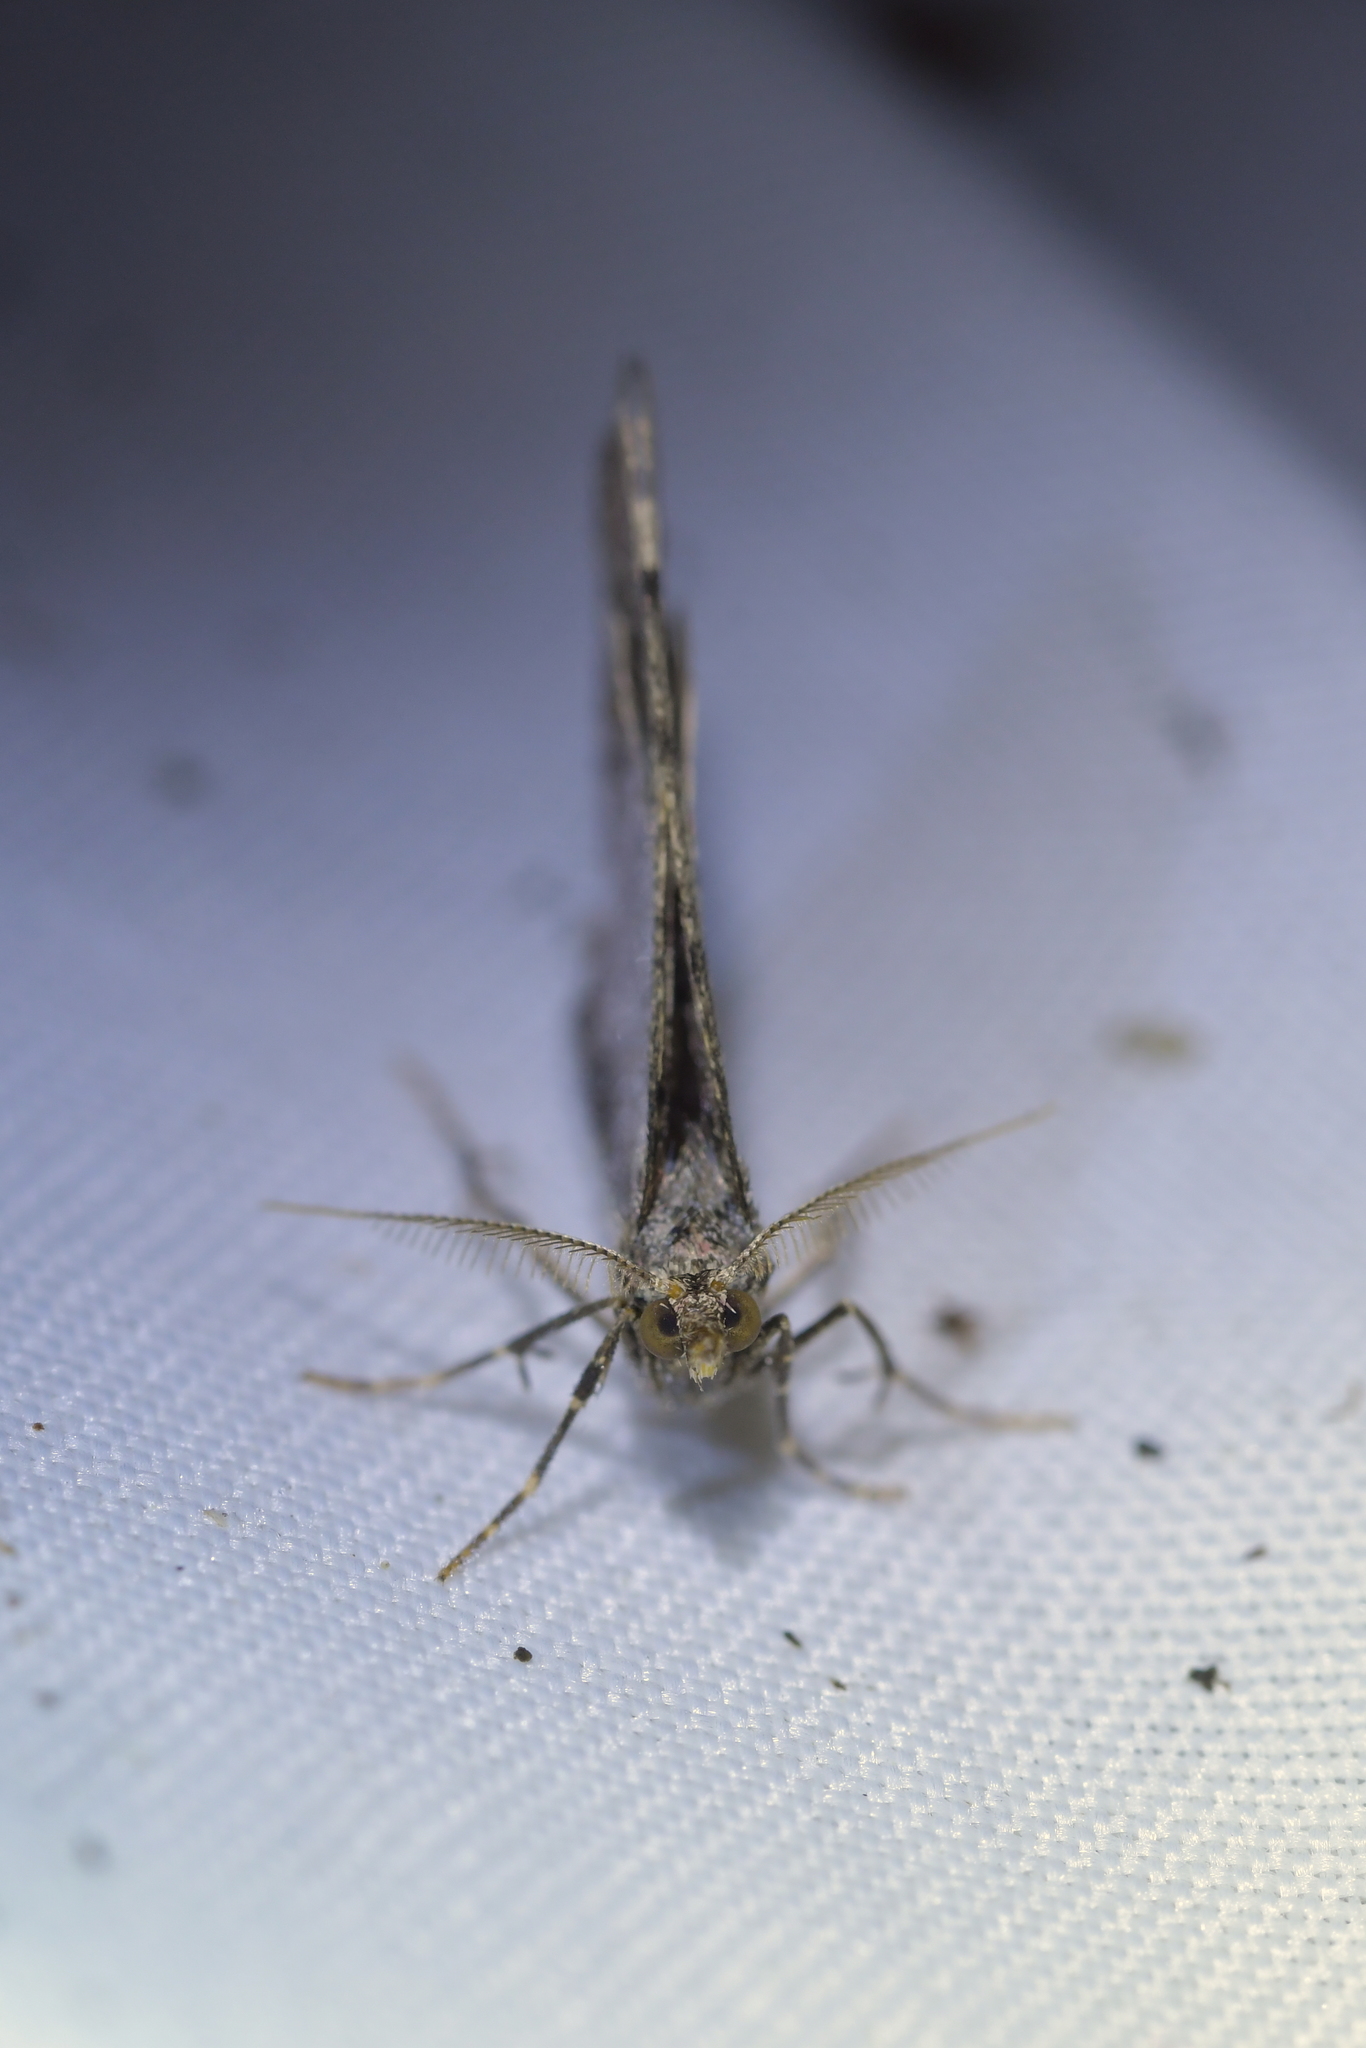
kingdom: Animalia
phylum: Arthropoda
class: Insecta
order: Lepidoptera
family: Geometridae
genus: Epyaxa
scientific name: Epyaxa rosearia
